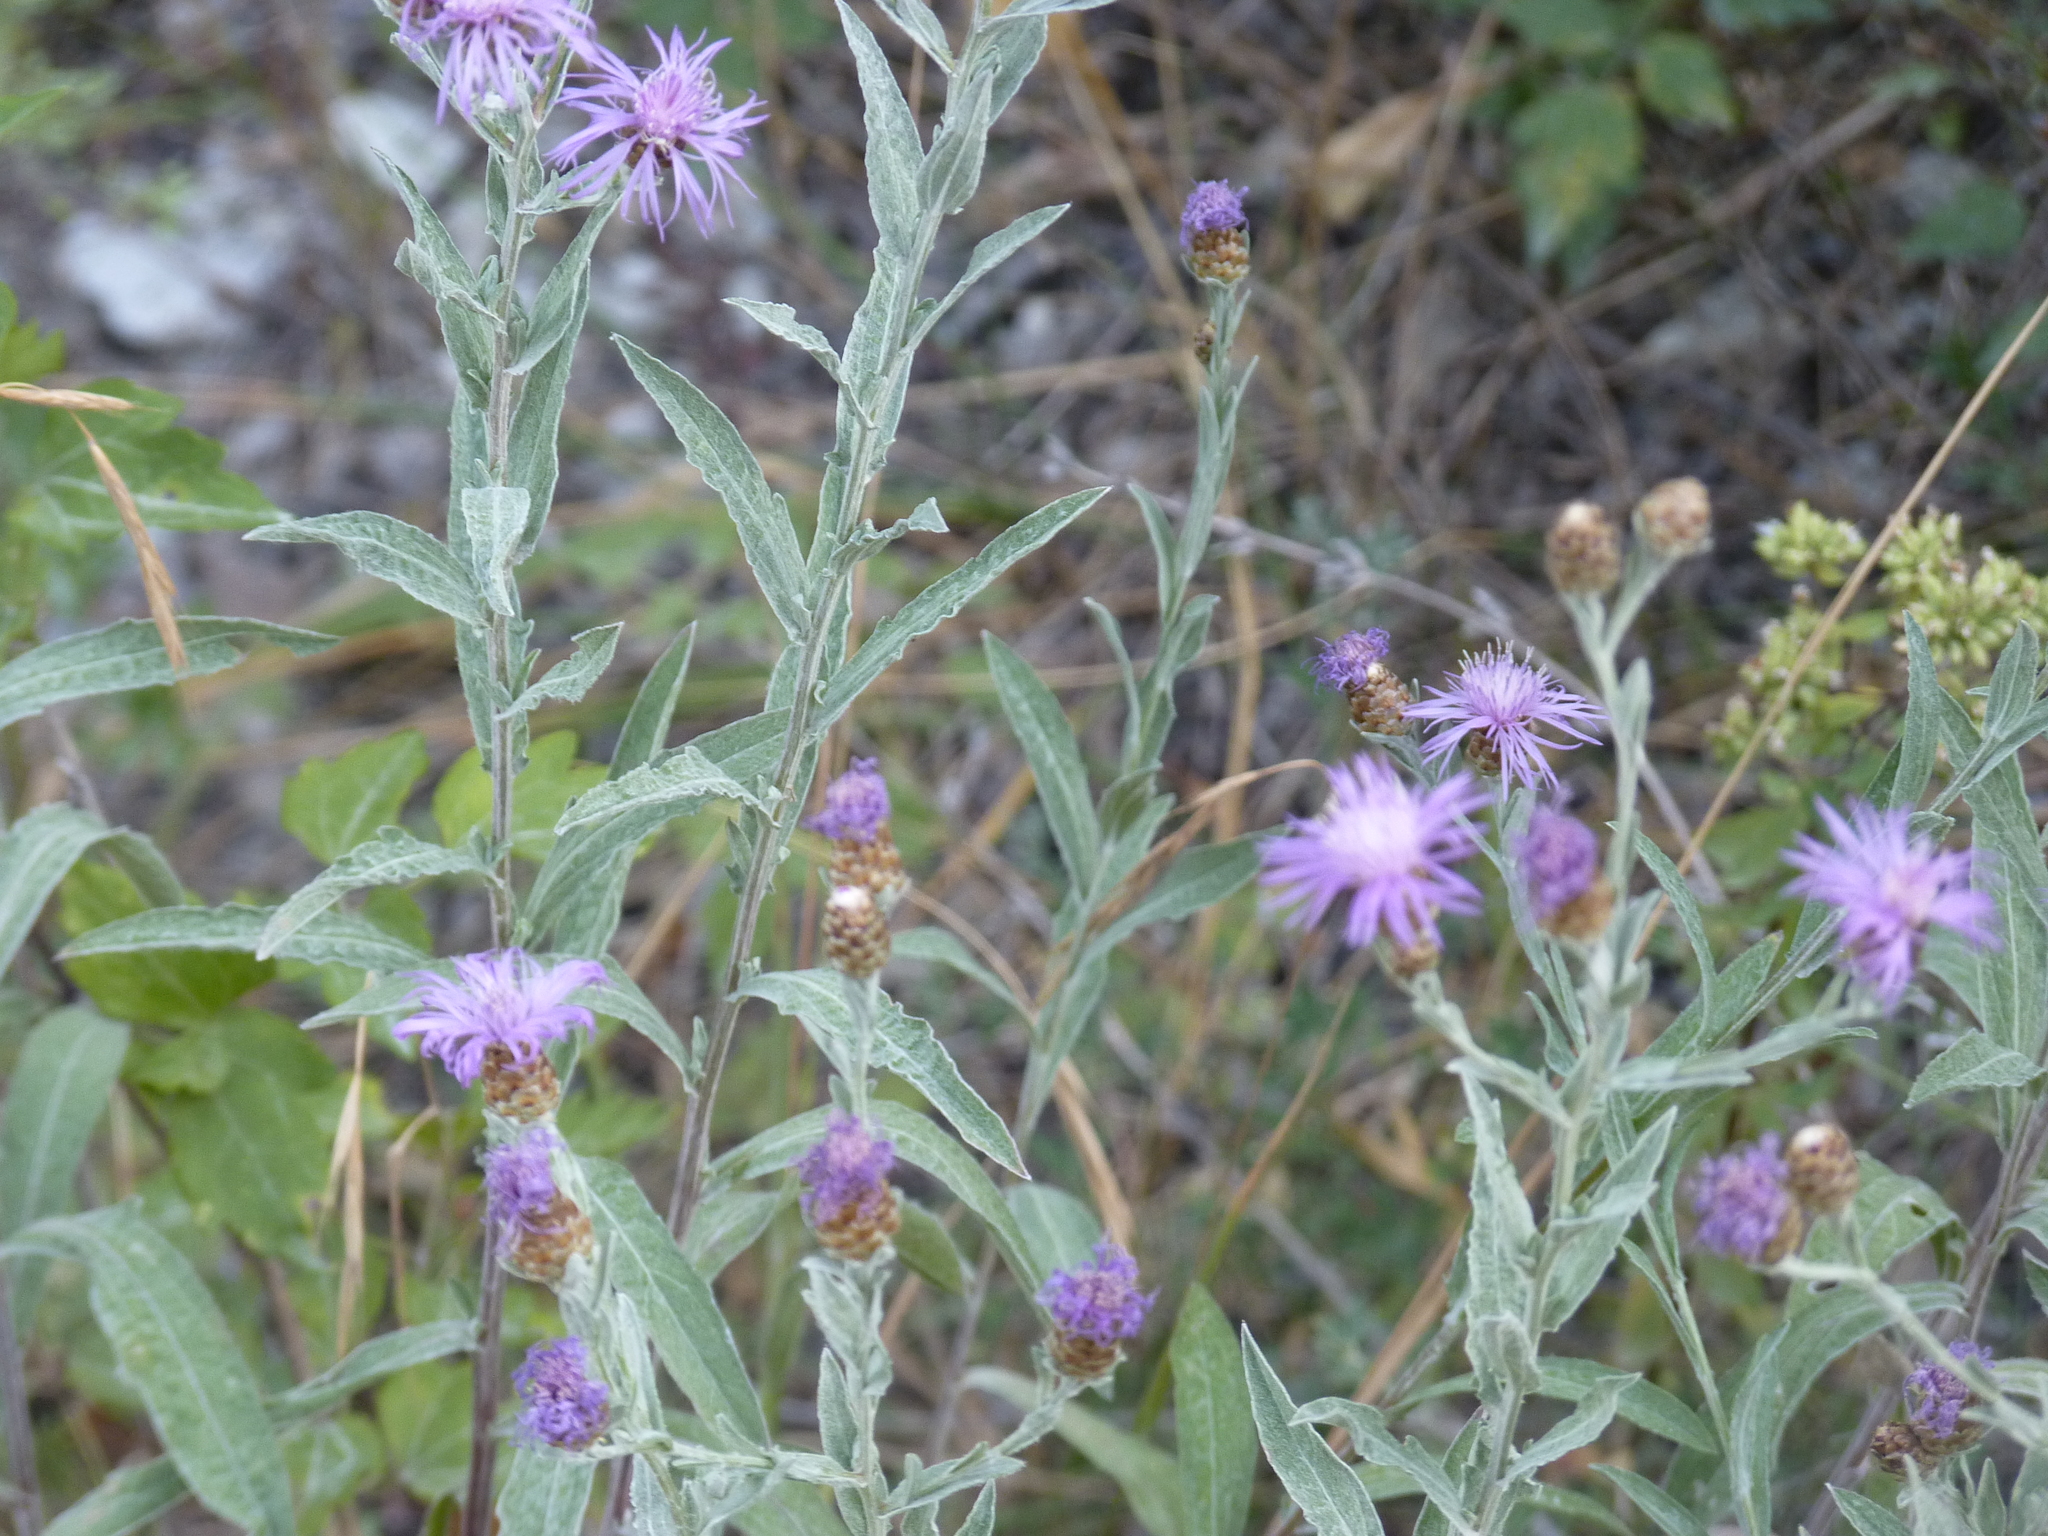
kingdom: Plantae
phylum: Tracheophyta
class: Magnoliopsida
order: Asterales
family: Asteraceae
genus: Centaurea
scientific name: Centaurea jacea
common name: Brown knapweed
